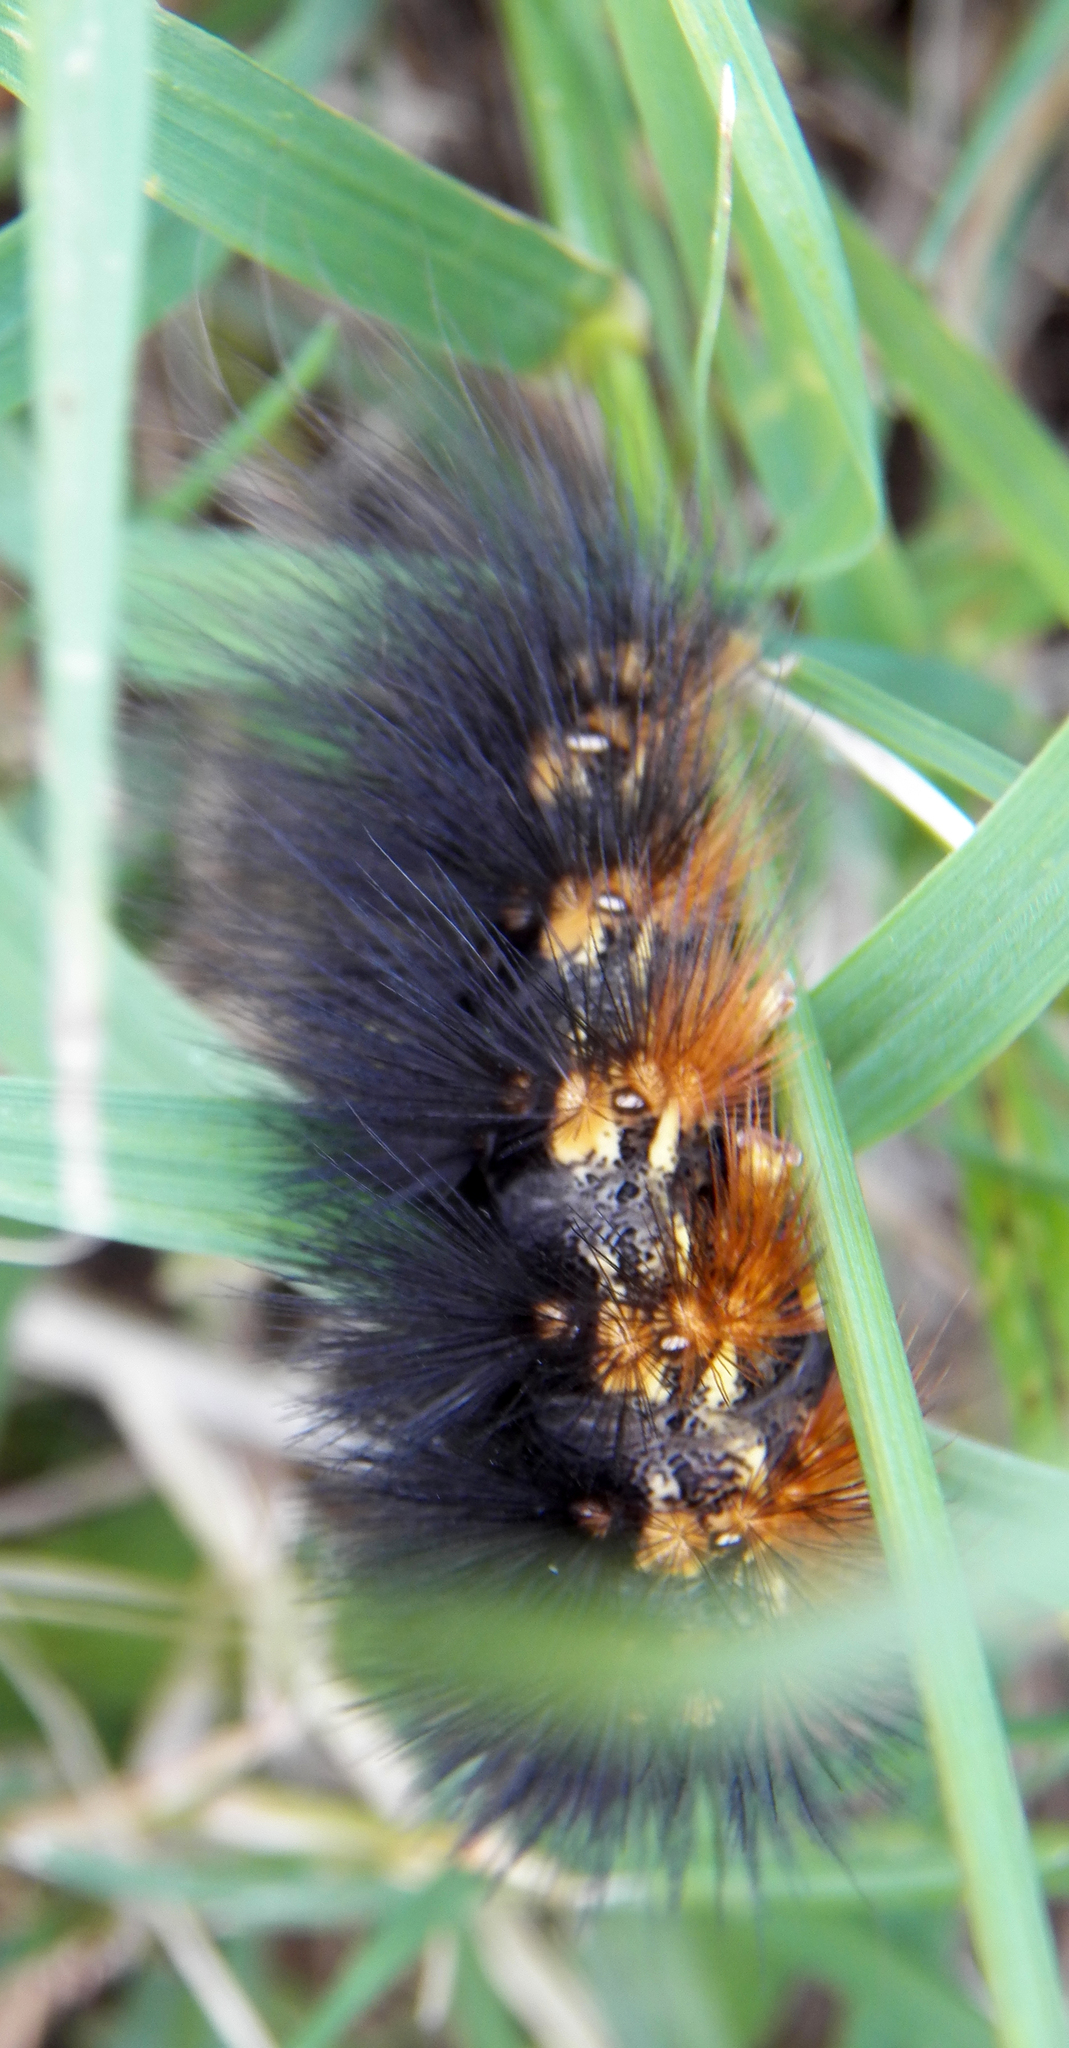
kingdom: Animalia
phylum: Arthropoda
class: Insecta
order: Lepidoptera
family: Erebidae
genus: Estigmene
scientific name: Estigmene acrea
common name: Salt marsh moth
